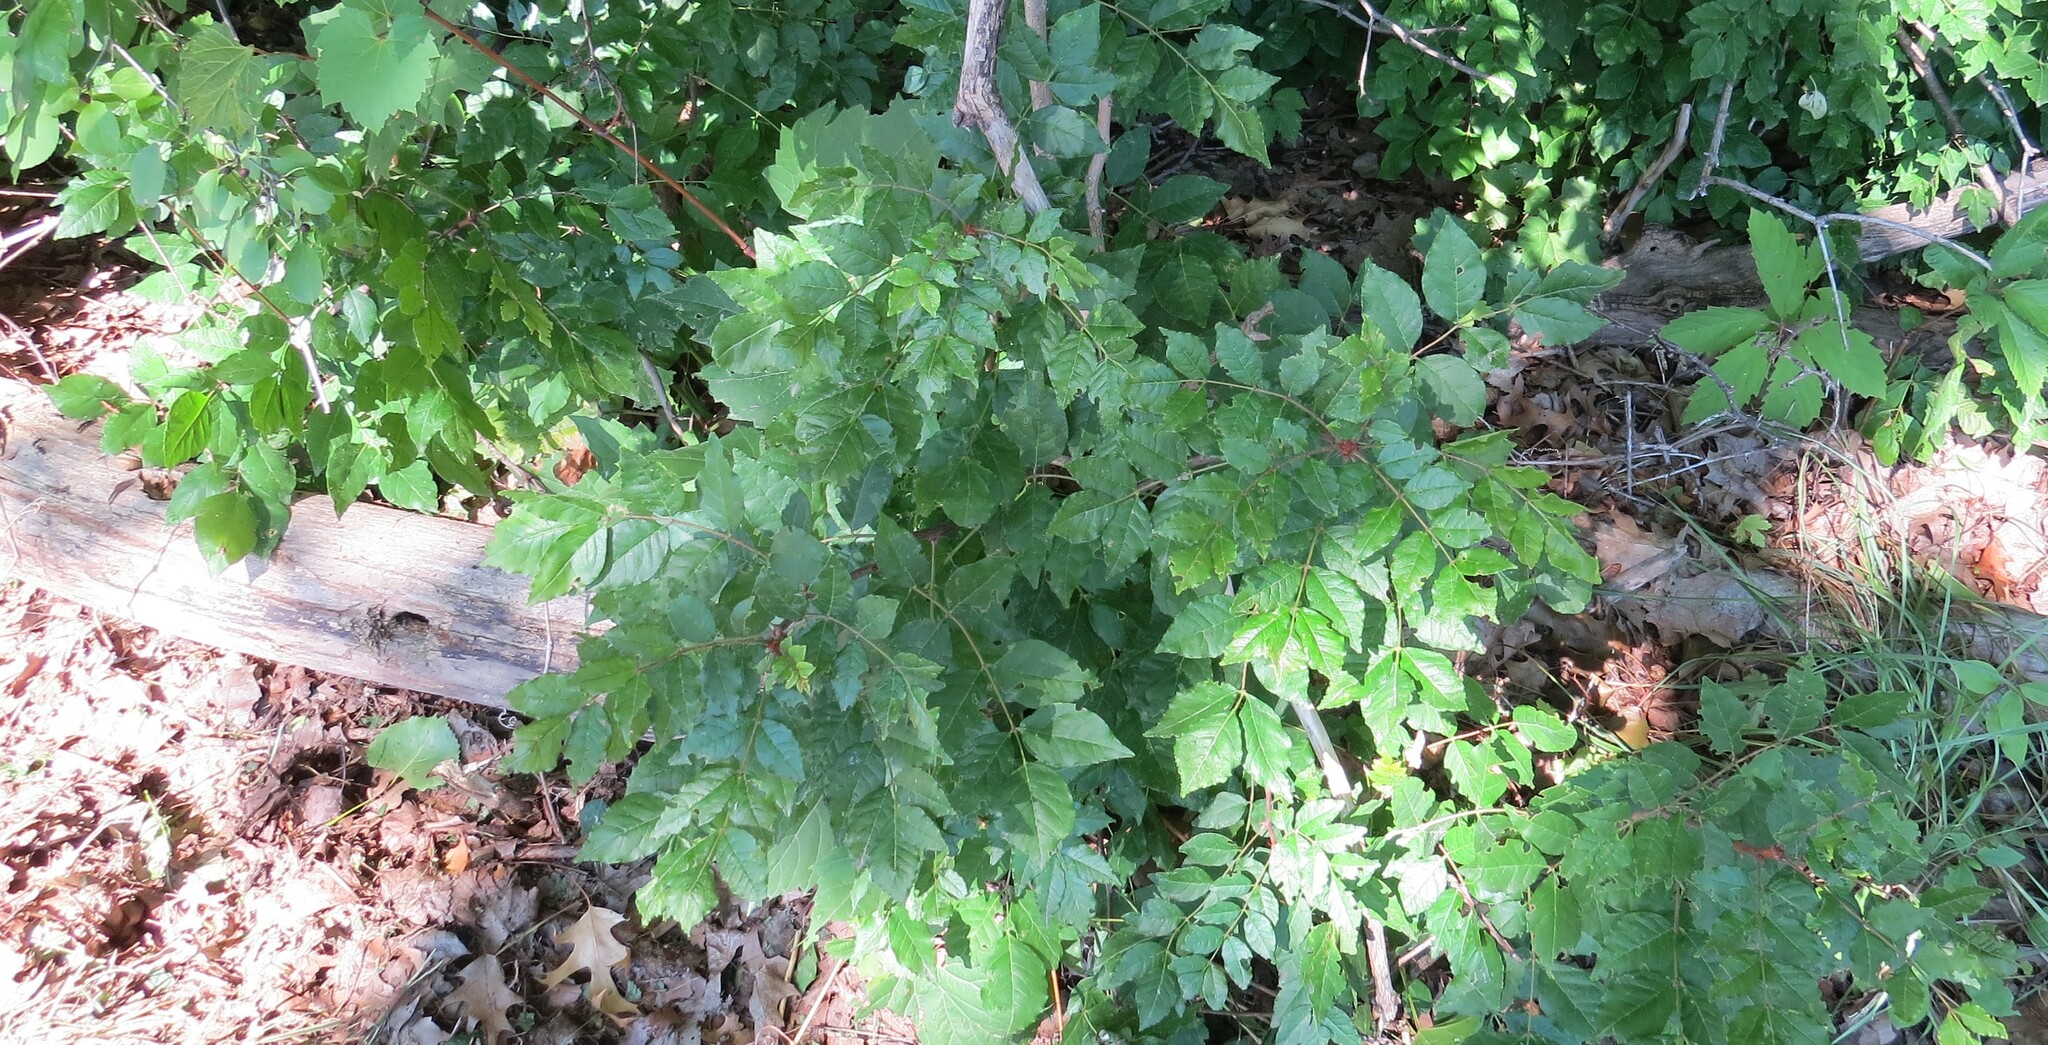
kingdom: Plantae
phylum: Tracheophyta
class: Magnoliopsida
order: Sapindales
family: Rutaceae
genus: Zanthoxylum
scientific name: Zanthoxylum americanum
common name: Northern prickly-ash
